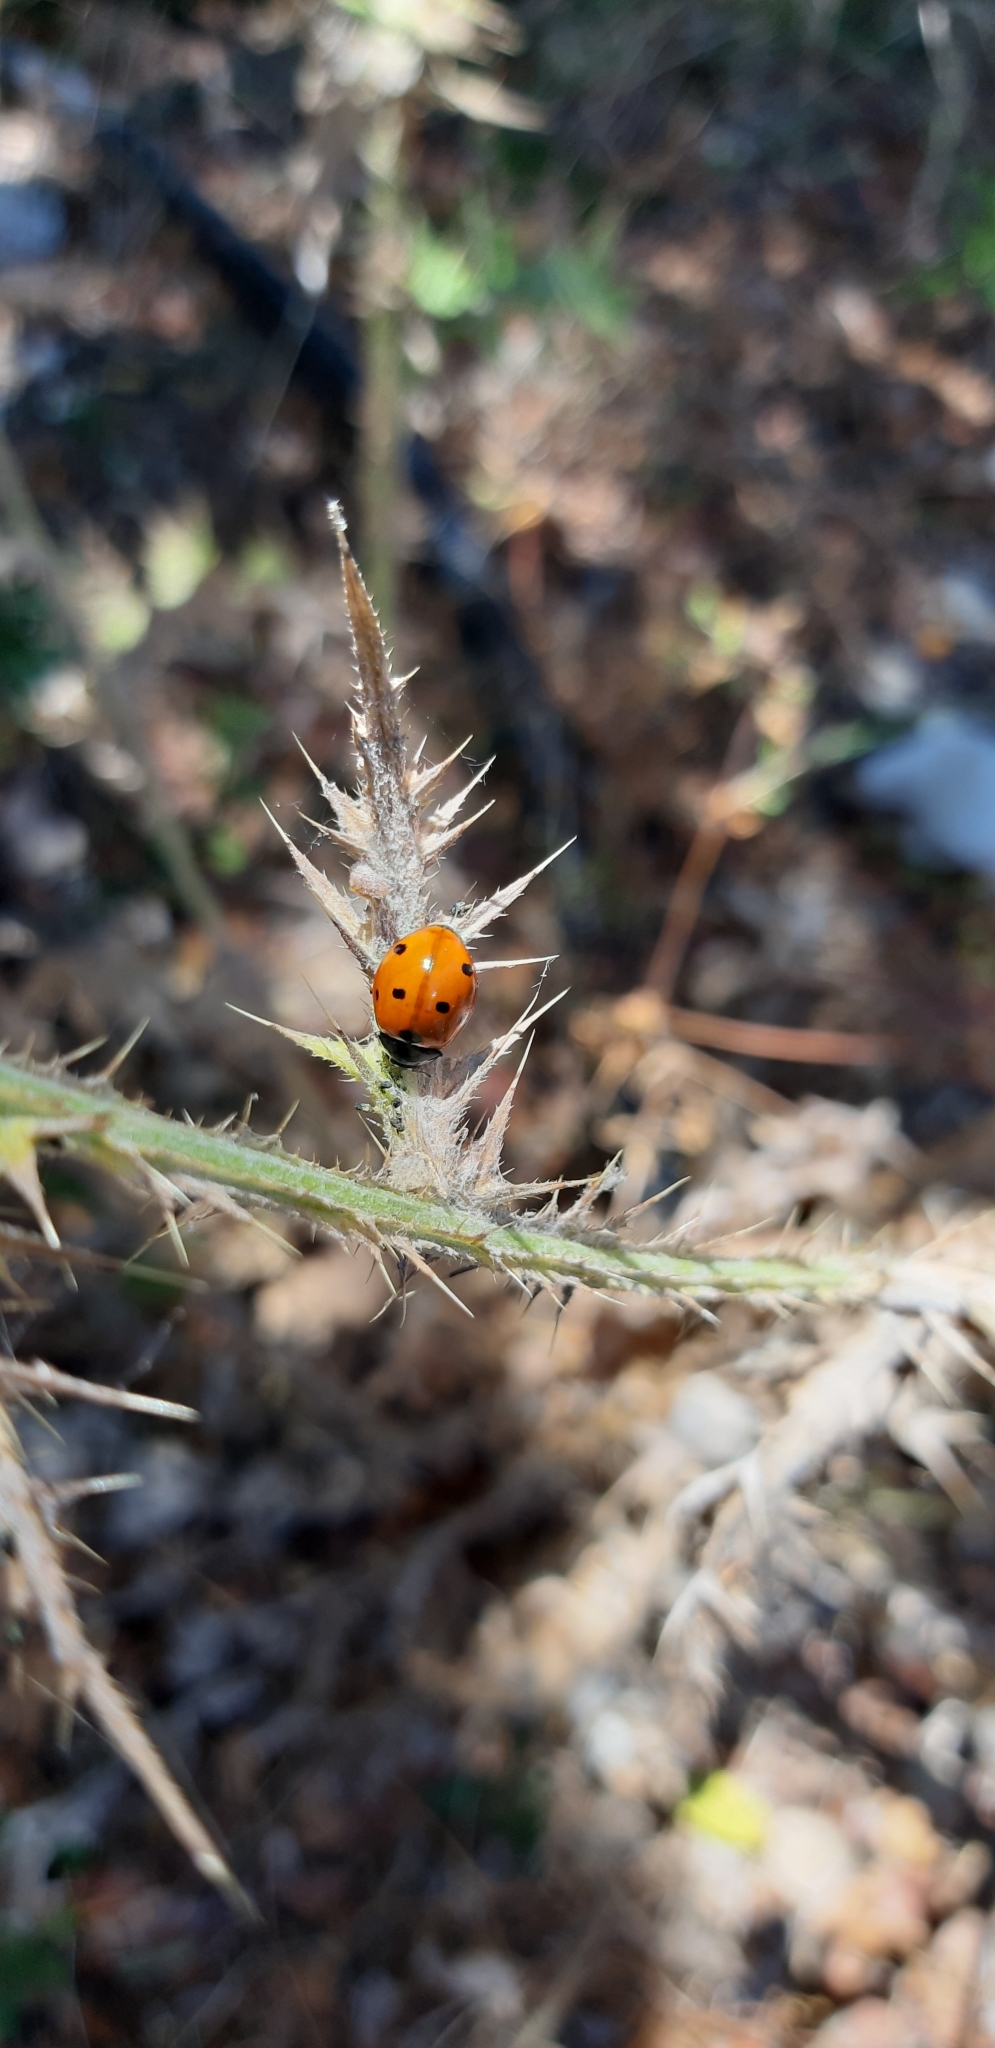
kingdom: Animalia
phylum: Arthropoda
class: Insecta
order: Coleoptera
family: Coccinellidae
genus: Coccinella
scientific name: Coccinella septempunctata
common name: Sevenspotted lady beetle
